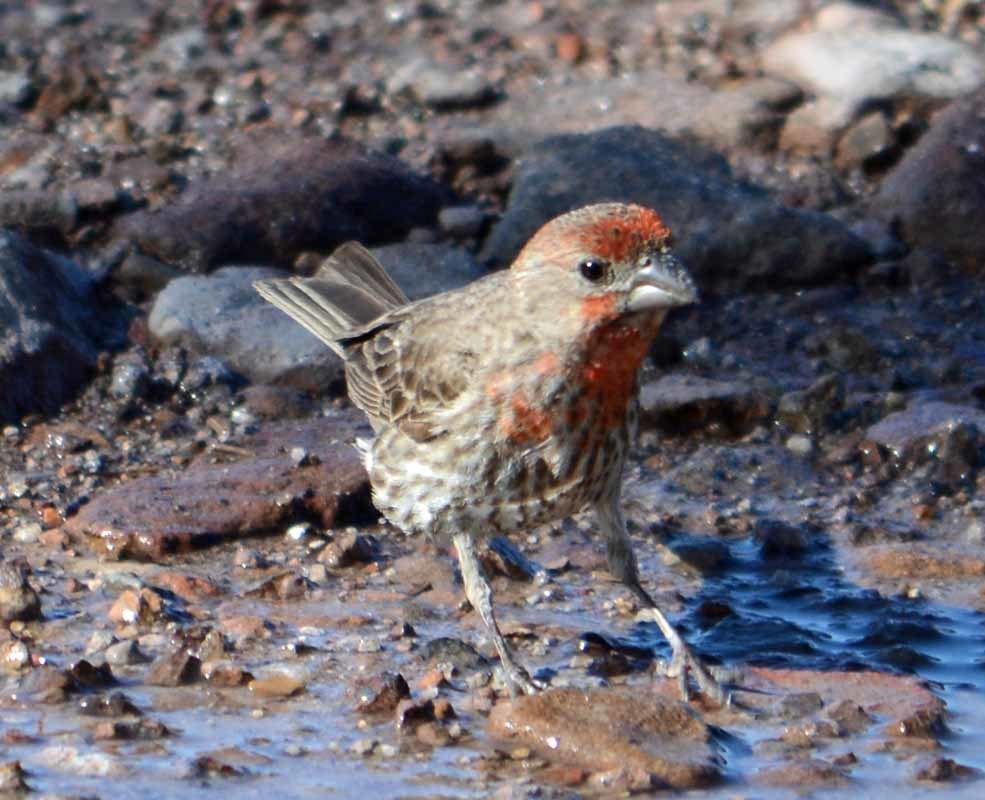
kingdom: Animalia
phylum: Chordata
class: Aves
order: Passeriformes
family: Fringillidae
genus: Haemorhous
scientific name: Haemorhous mexicanus
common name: House finch
